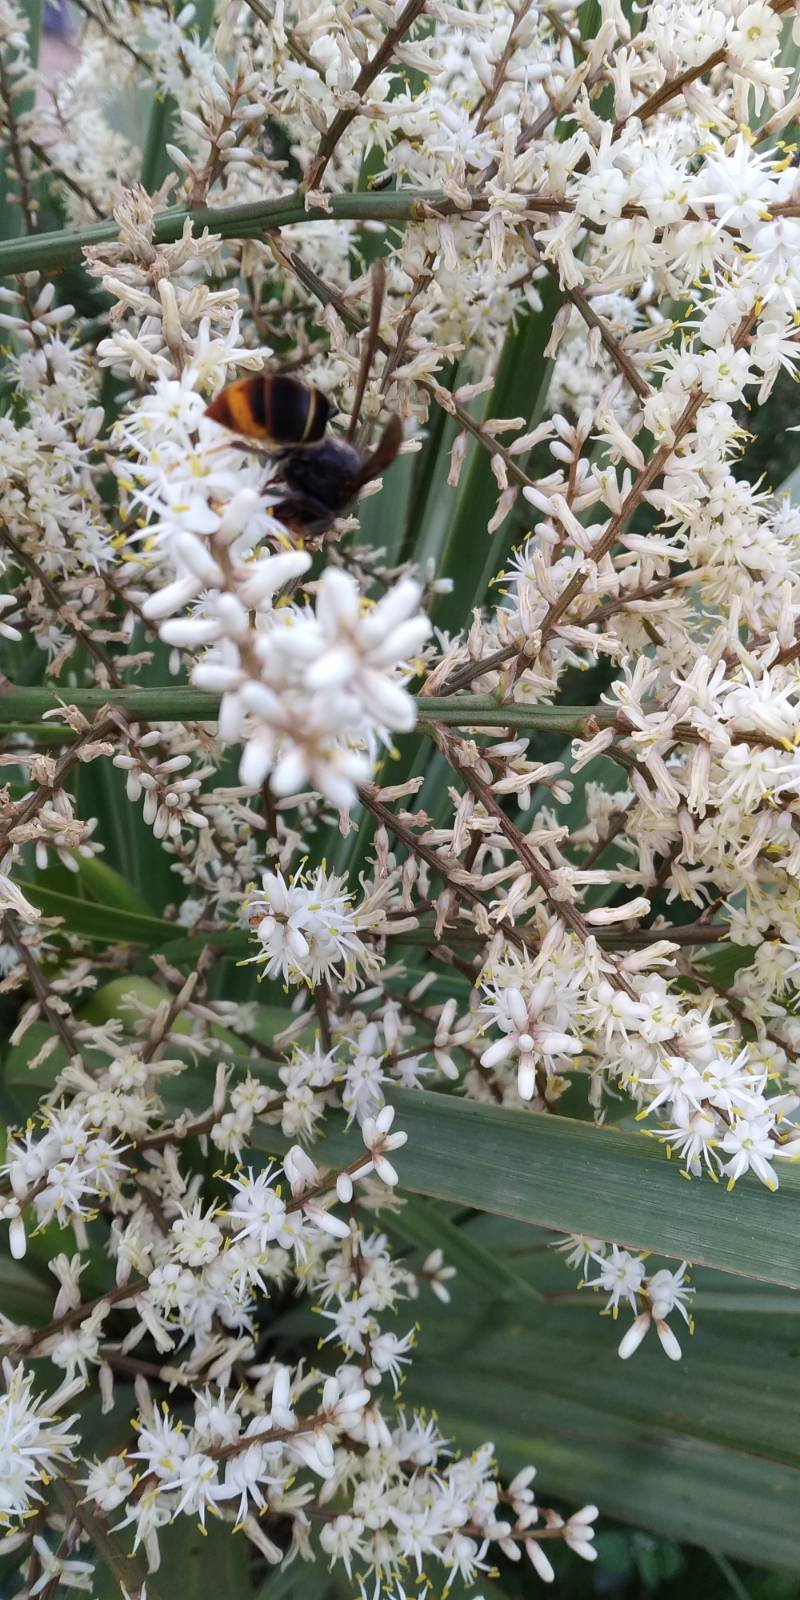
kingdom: Animalia
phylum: Arthropoda
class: Insecta
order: Hymenoptera
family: Vespidae
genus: Vespa
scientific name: Vespa velutina
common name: Asian hornet
